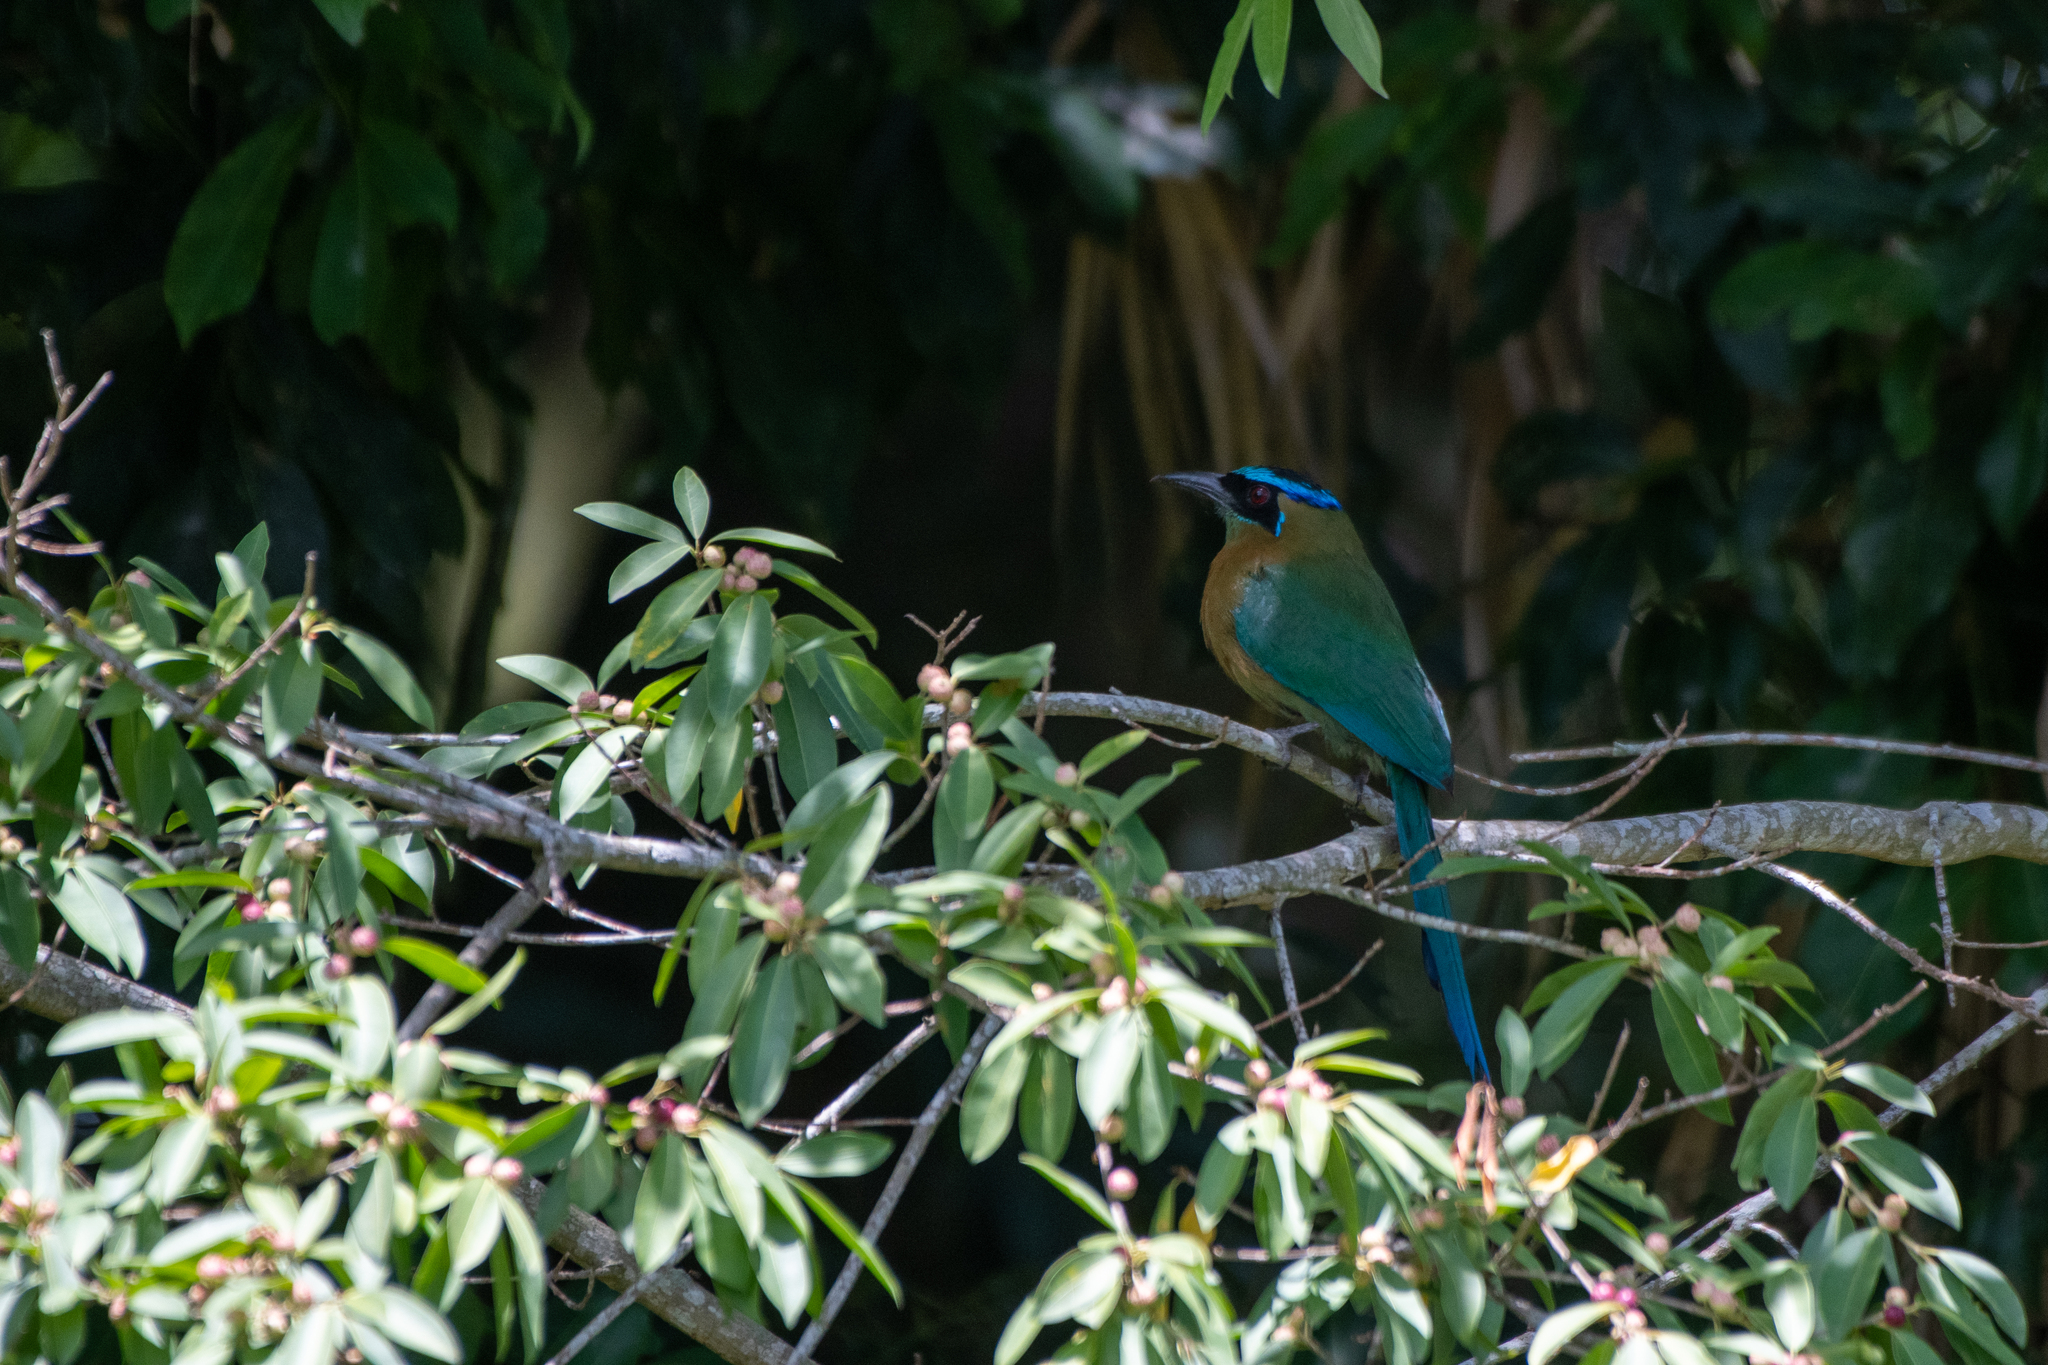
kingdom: Animalia
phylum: Chordata
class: Aves
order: Coraciiformes
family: Momotidae
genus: Momotus
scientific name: Momotus lessonii
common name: Lesson's motmot
